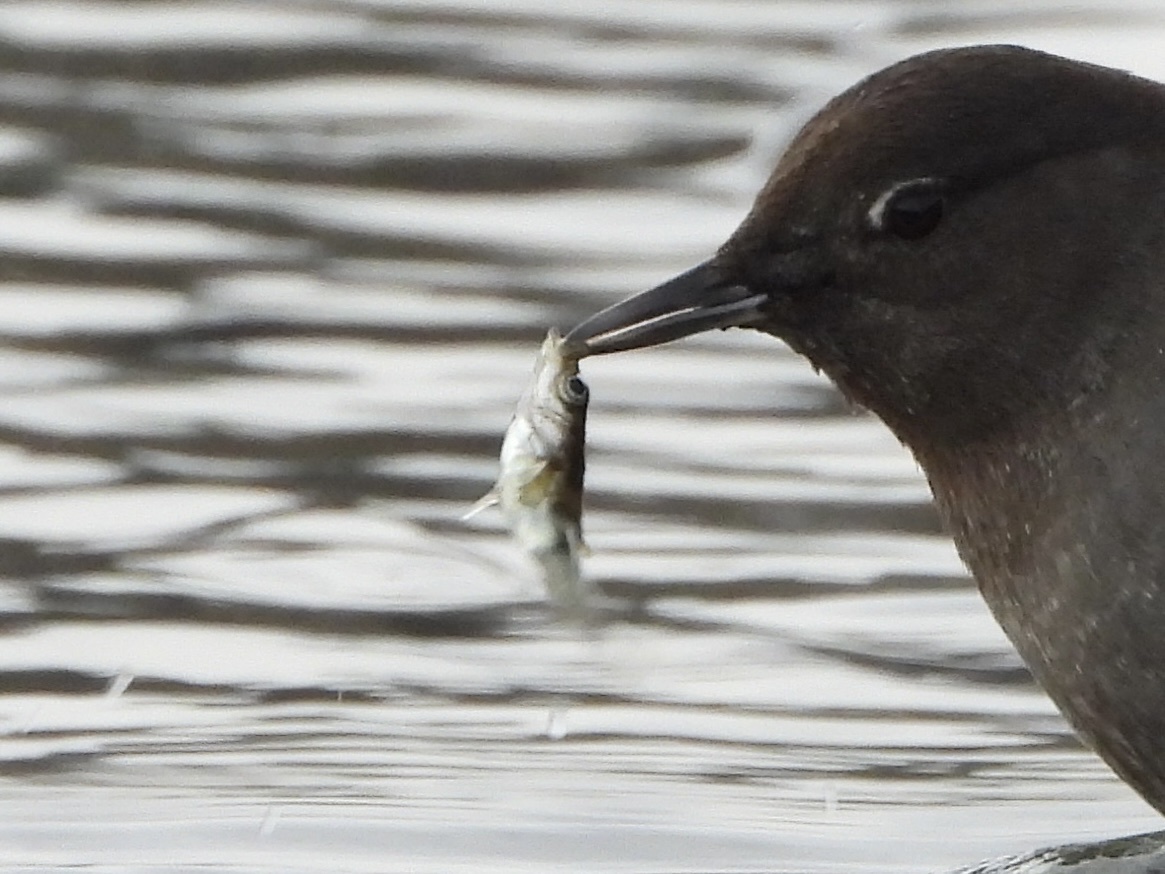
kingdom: Animalia
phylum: Chordata
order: Gasterosteiformes
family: Gasterosteidae
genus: Gasterosteus
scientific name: Gasterosteus aculeatus
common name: Three-spined stickleback
